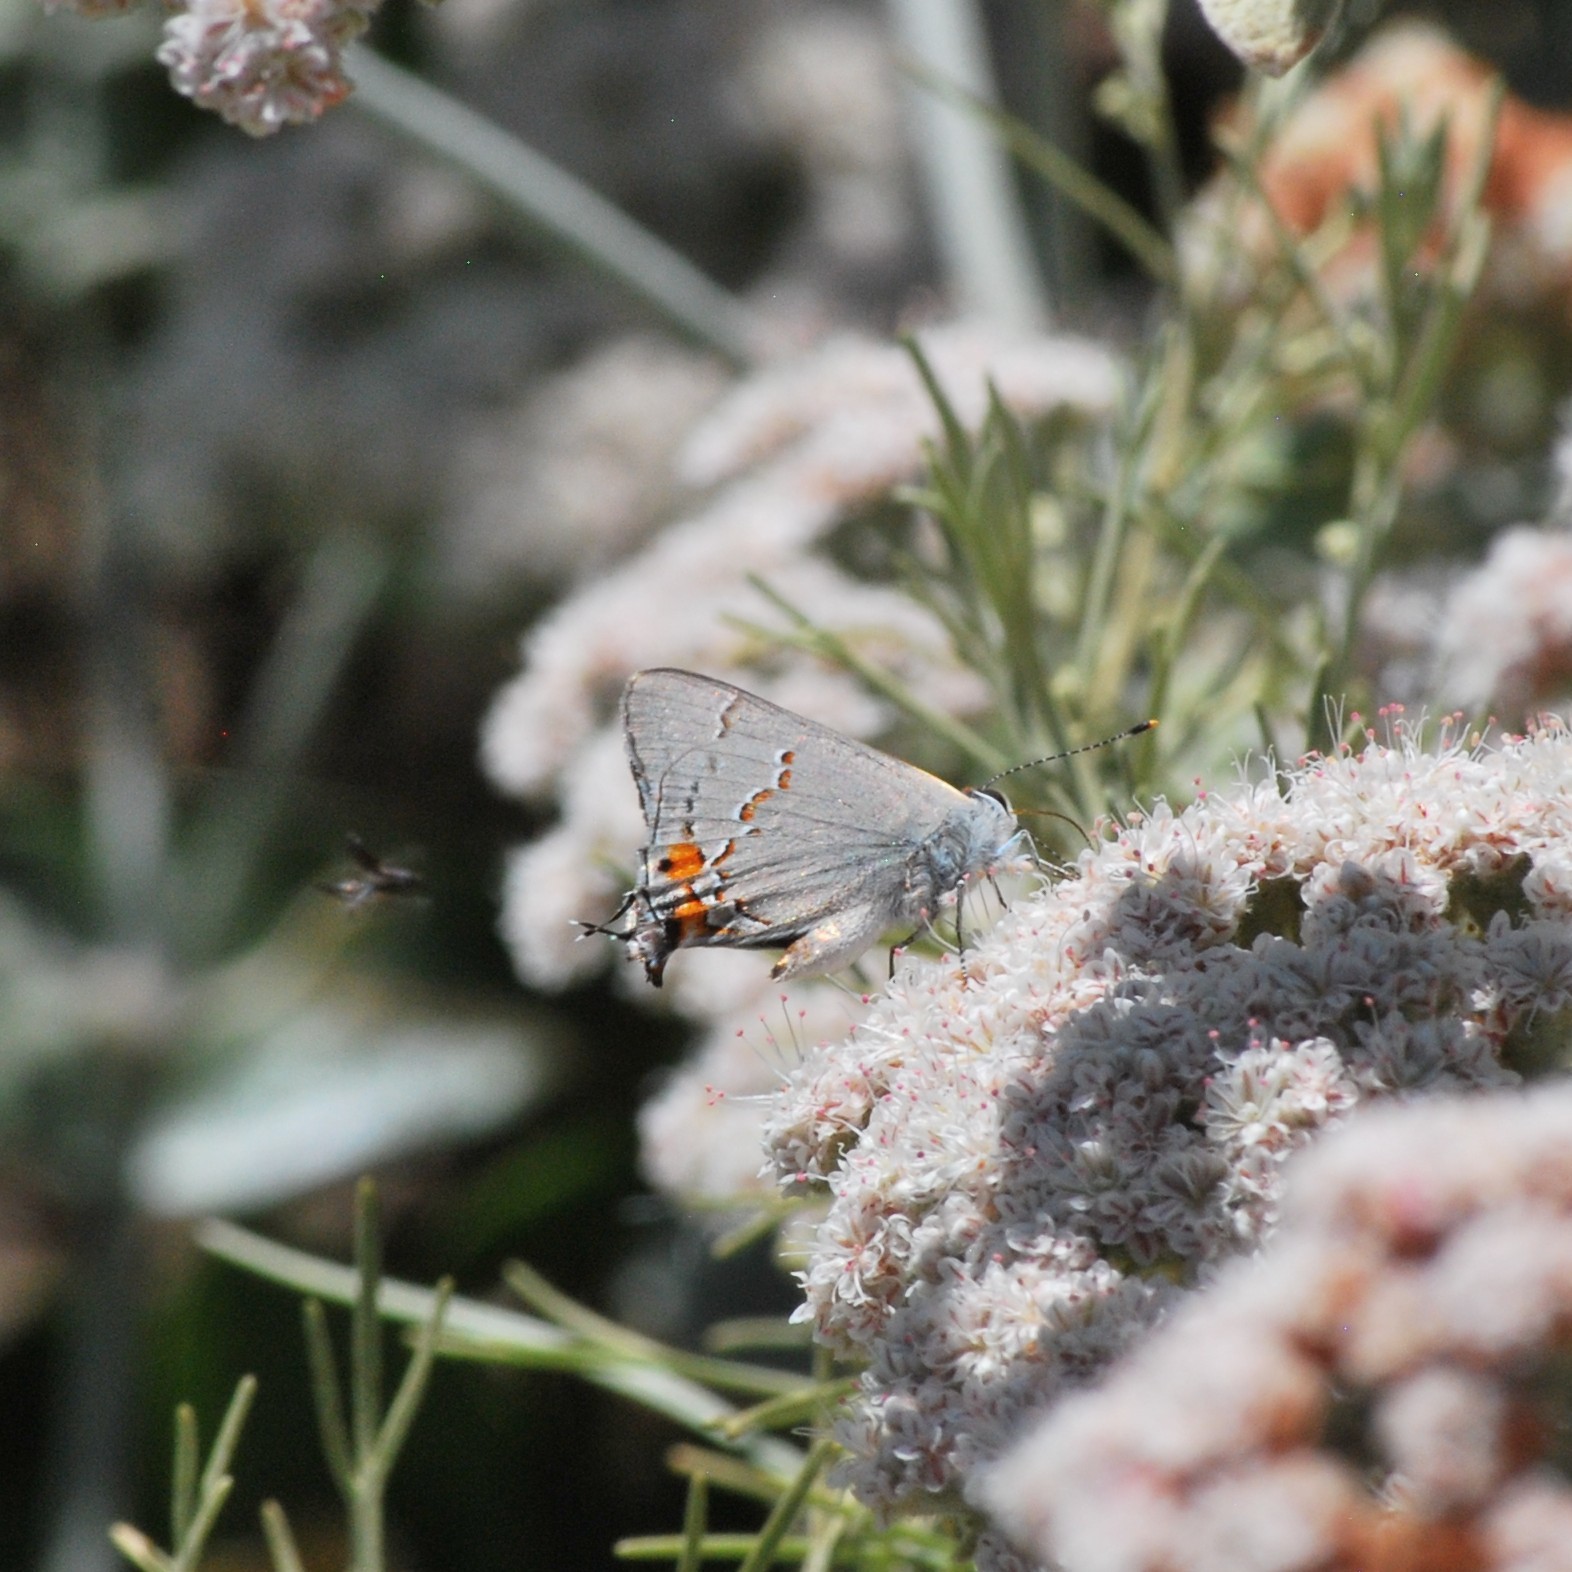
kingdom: Animalia
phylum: Arthropoda
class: Insecta
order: Lepidoptera
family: Lycaenidae
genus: Strymon
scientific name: Strymon melinus
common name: Gray hairstreak
